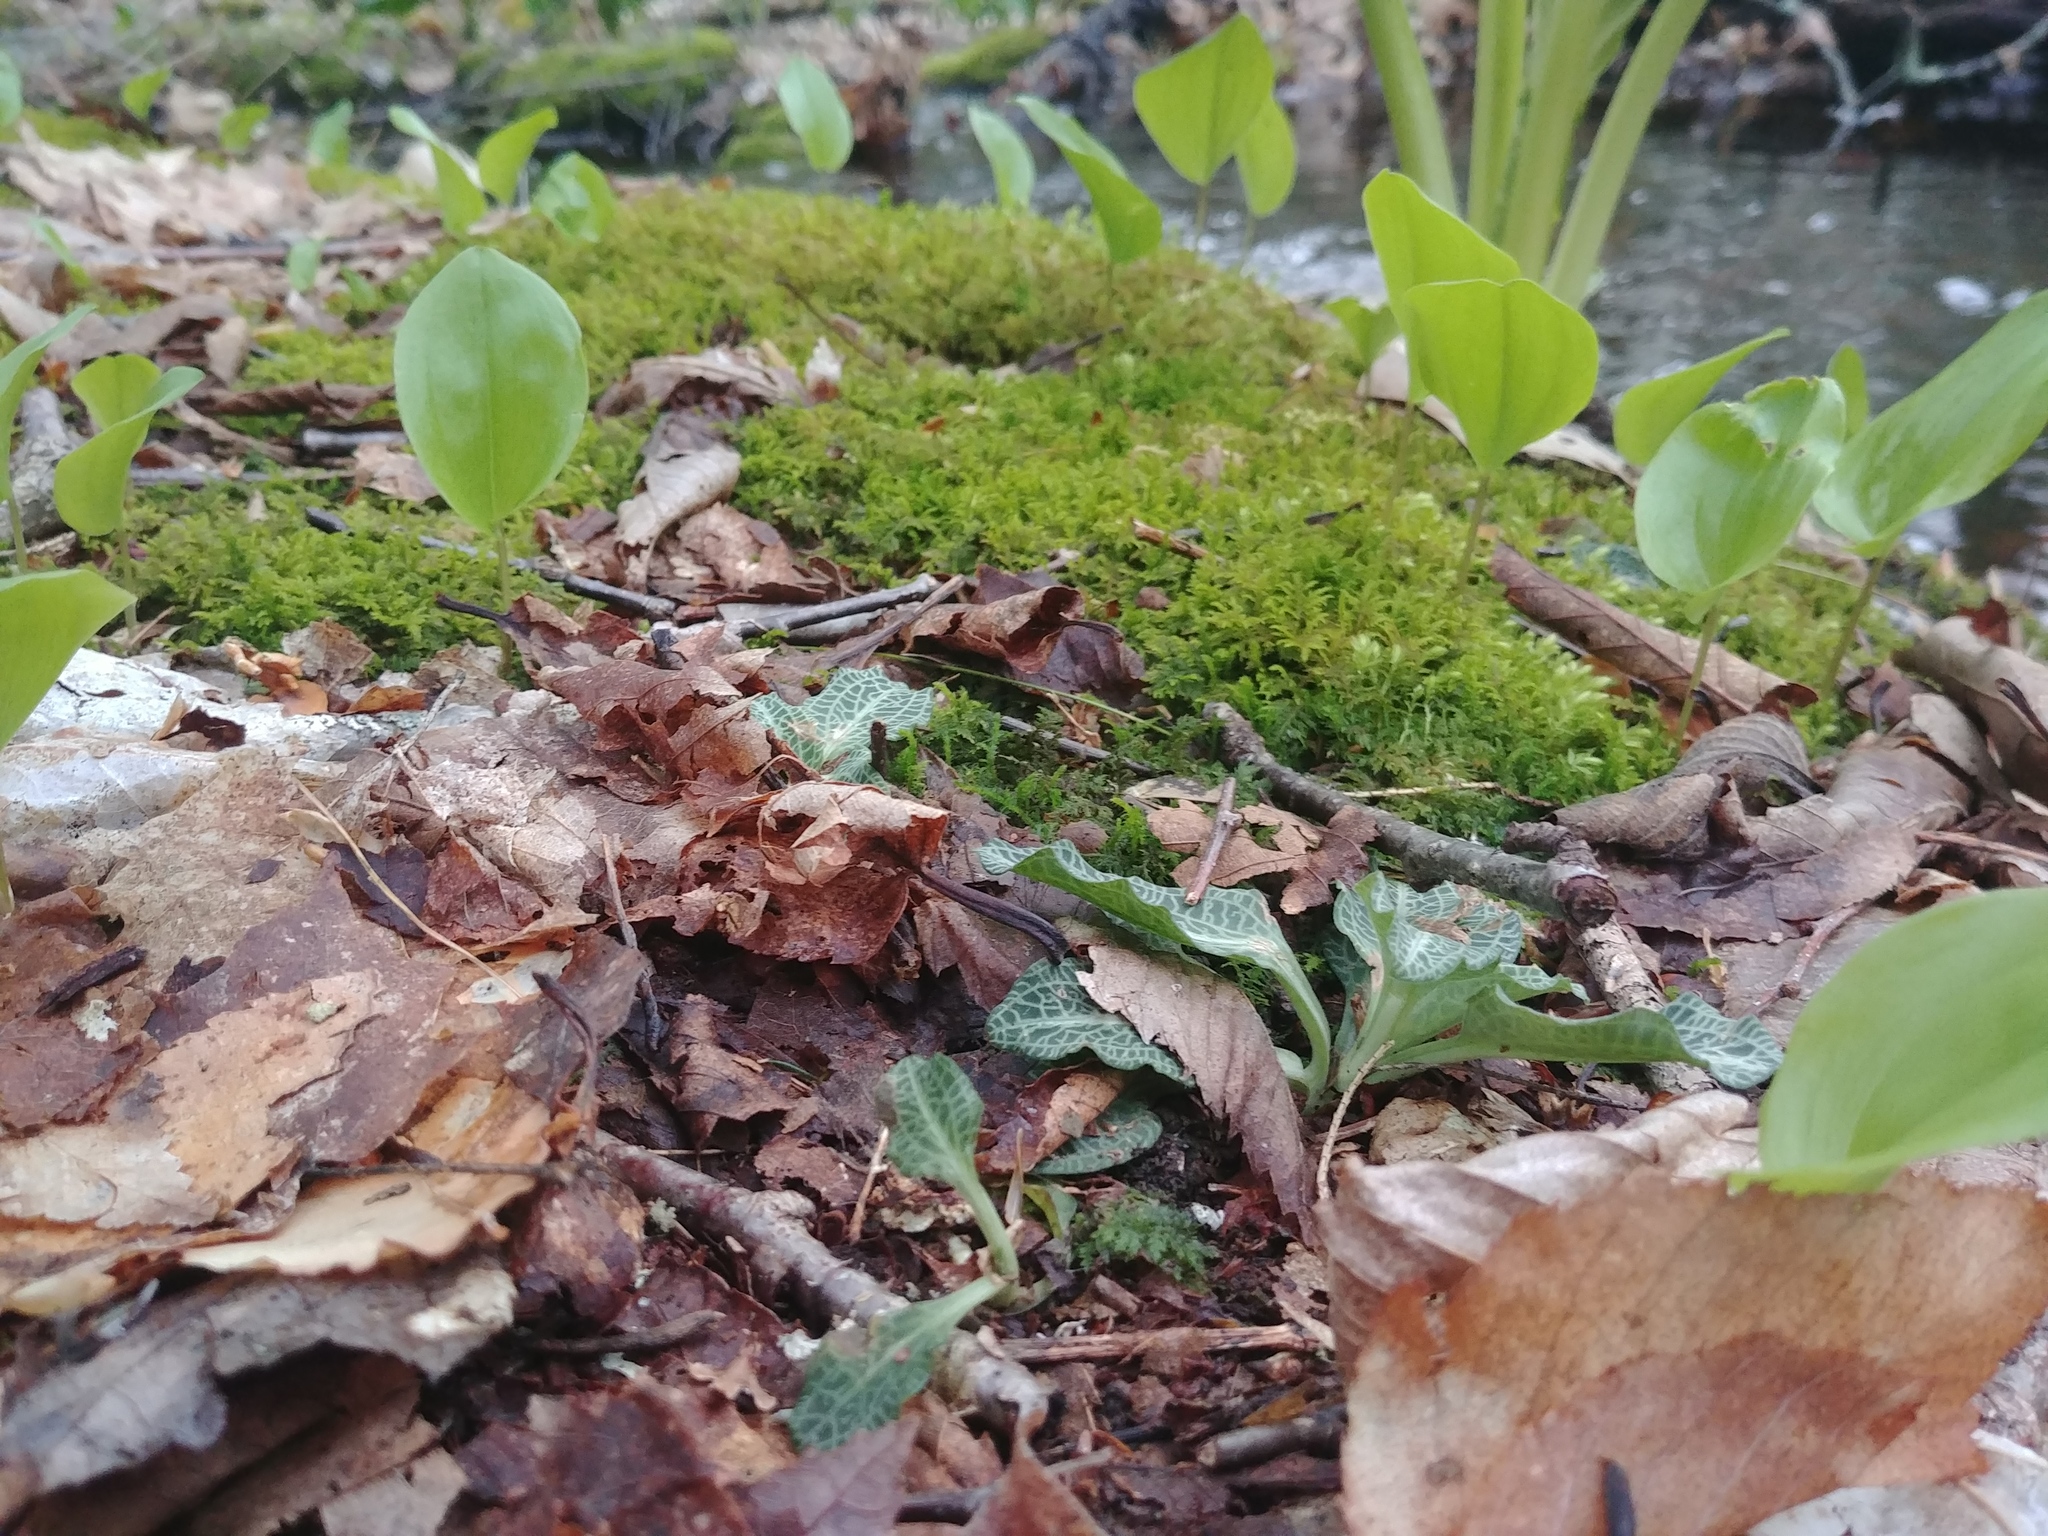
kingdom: Plantae
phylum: Tracheophyta
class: Liliopsida
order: Asparagales
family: Orchidaceae
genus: Goodyera
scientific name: Goodyera pubescens
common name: Downy rattlesnake-plantain
